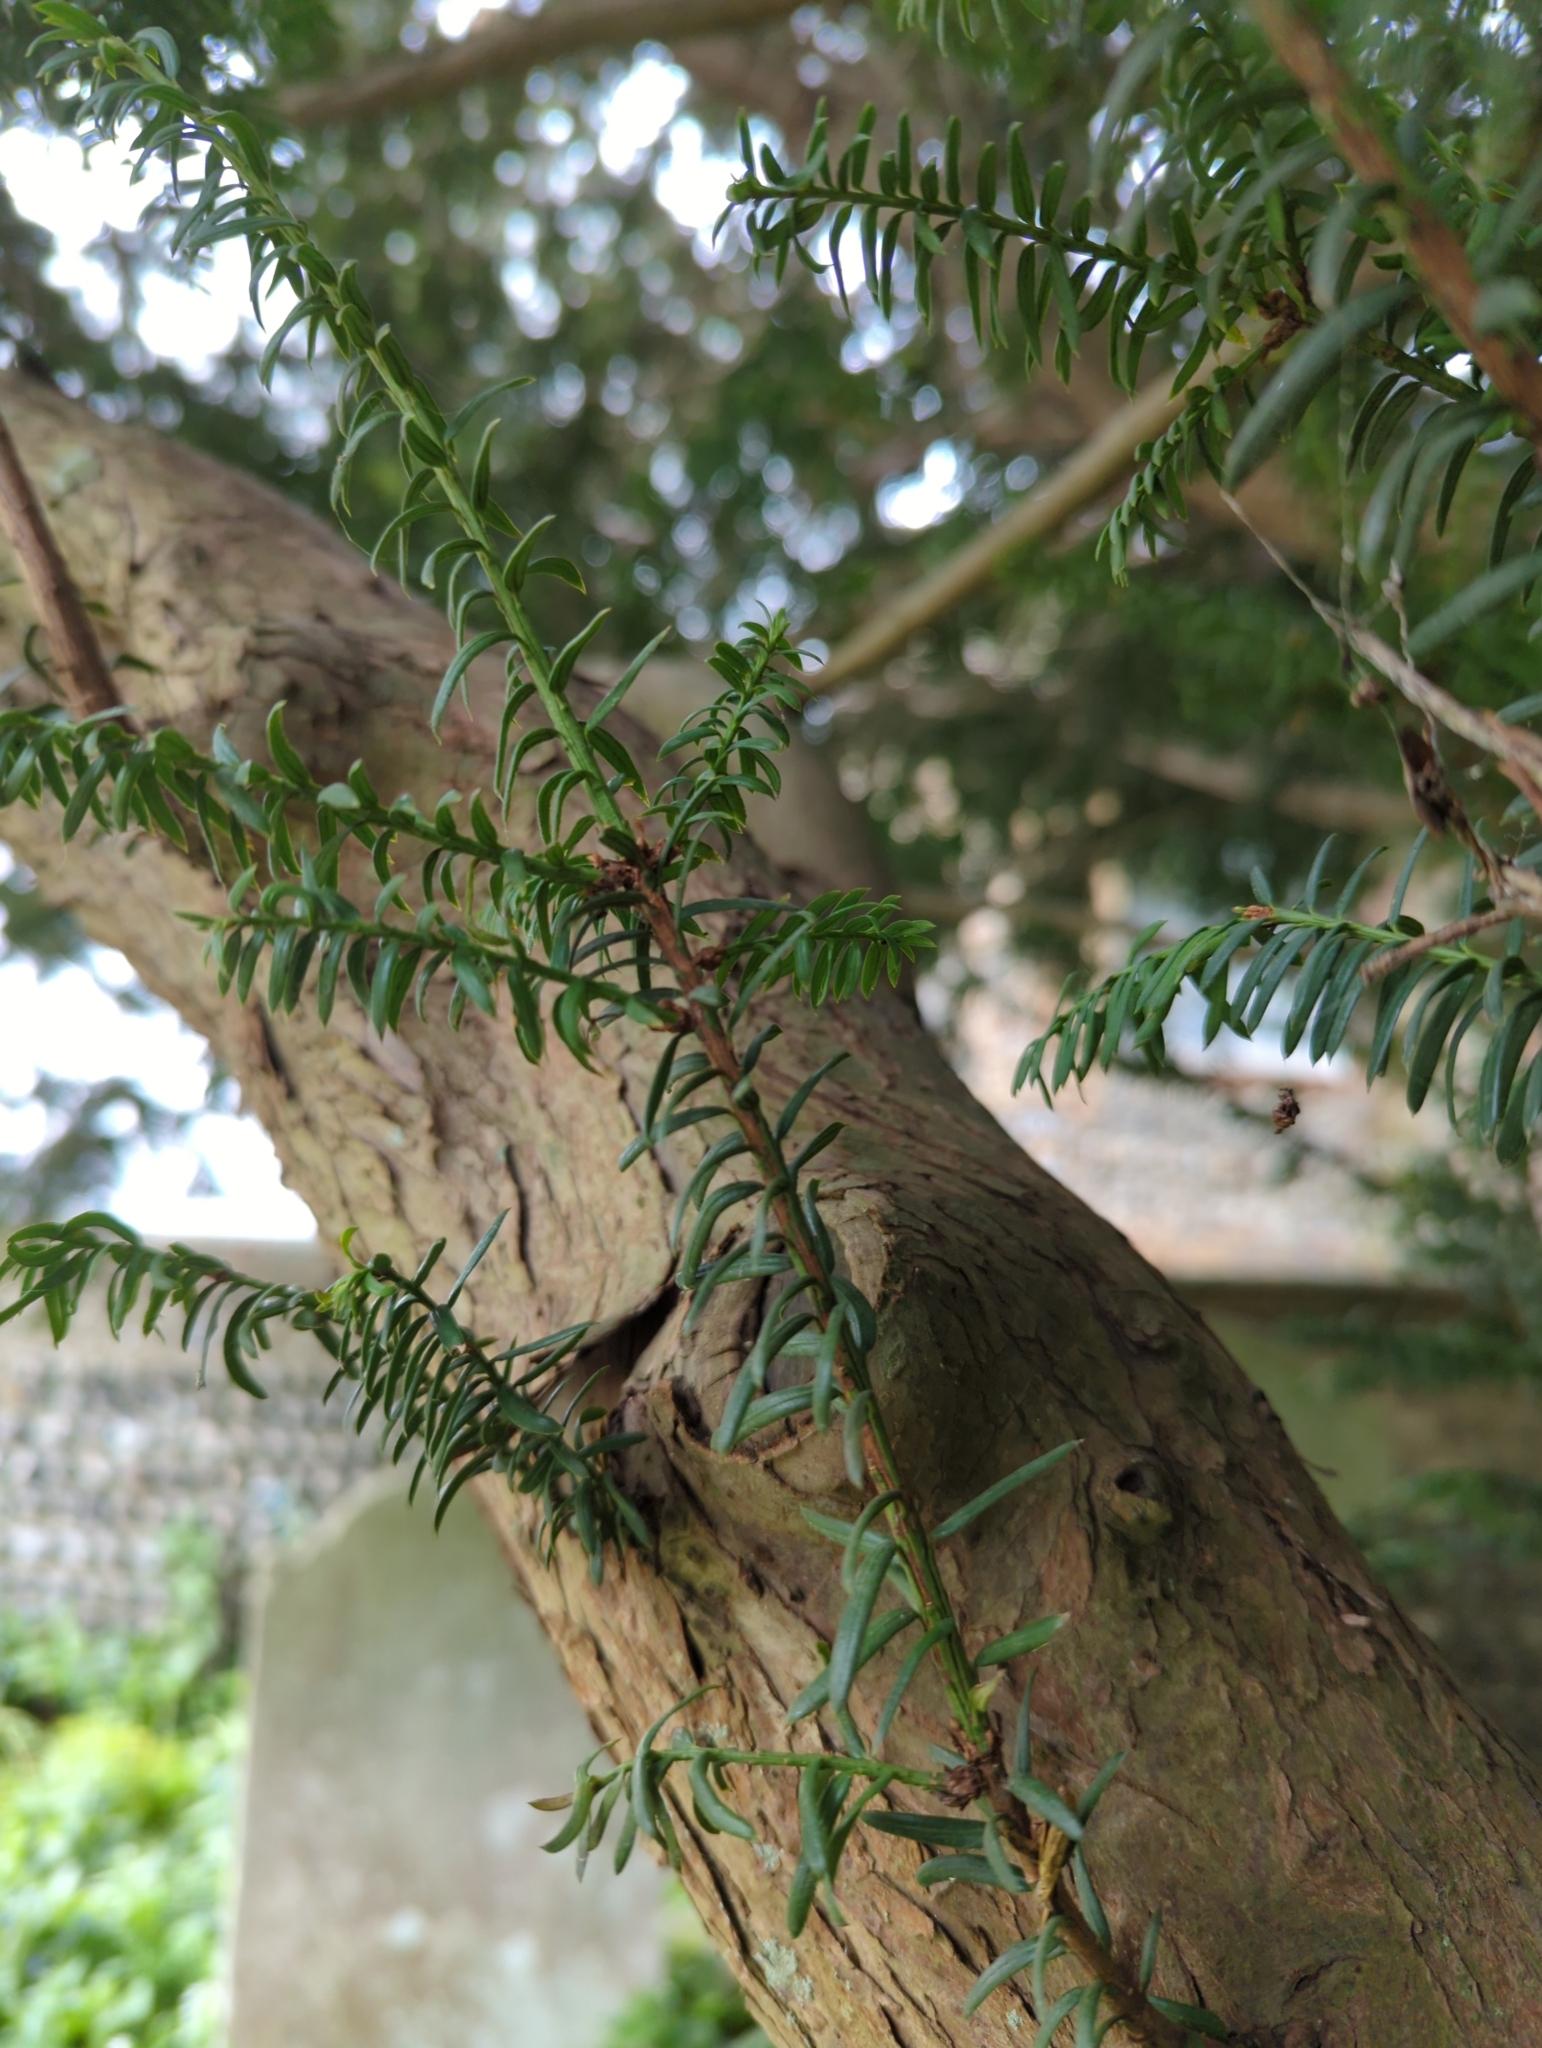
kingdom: Plantae
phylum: Tracheophyta
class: Pinopsida
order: Pinales
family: Taxaceae
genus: Taxus
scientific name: Taxus baccata
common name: Yew
